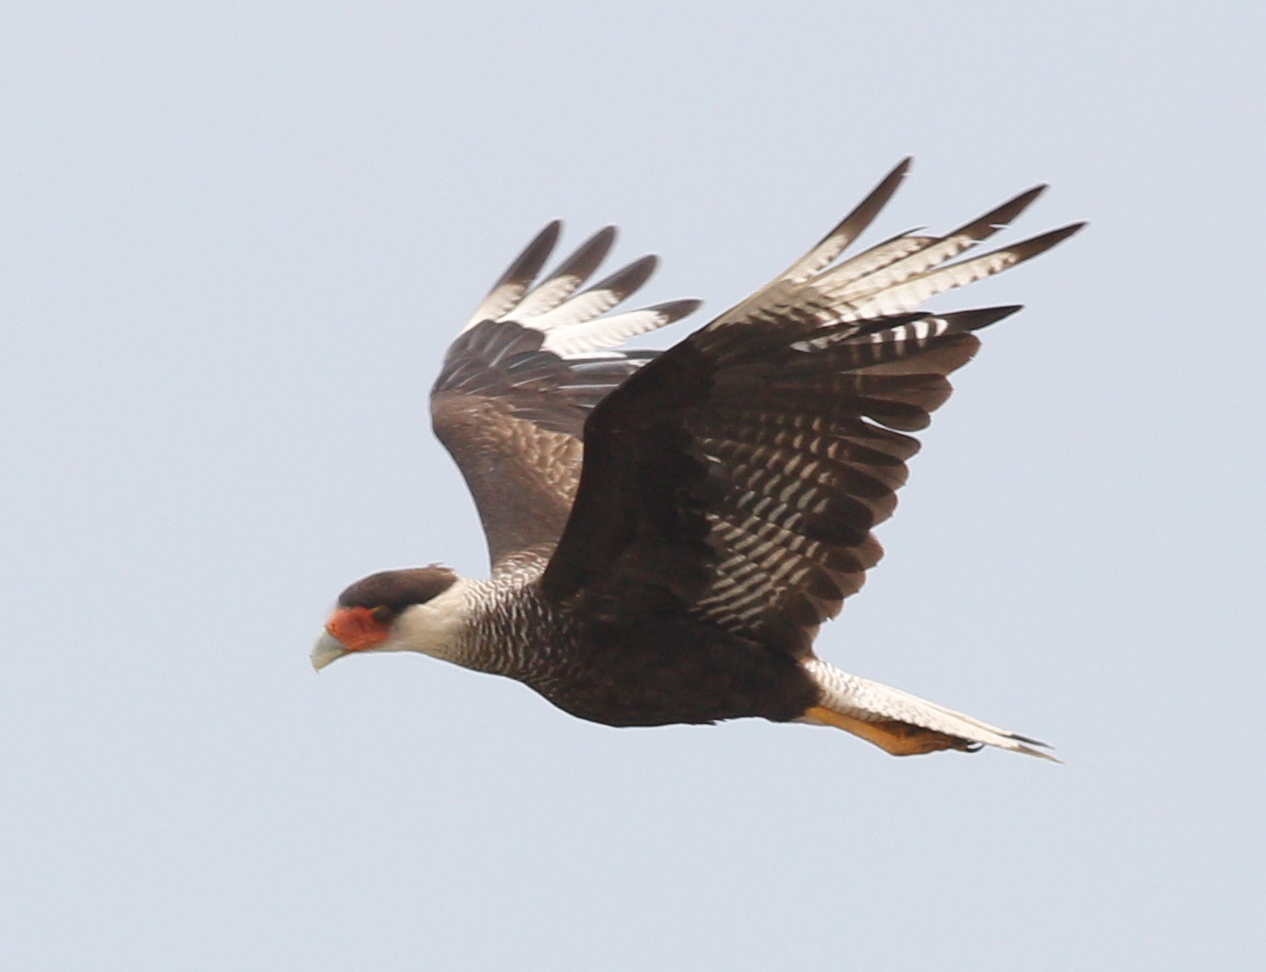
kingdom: Animalia
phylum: Chordata
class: Aves
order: Falconiformes
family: Falconidae
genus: Caracara
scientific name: Caracara plancus
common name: Southern caracara
